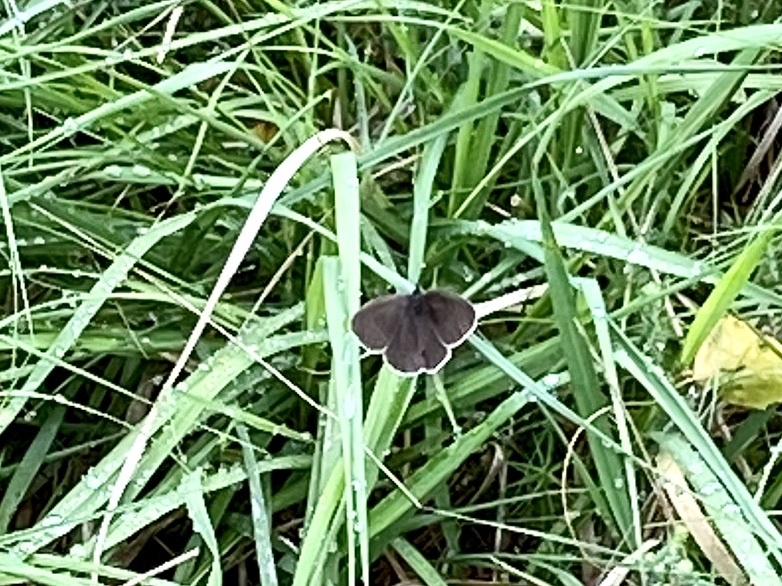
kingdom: Animalia
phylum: Arthropoda
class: Insecta
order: Lepidoptera
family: Nymphalidae
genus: Aphantopus
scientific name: Aphantopus hyperantus
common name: Ringlet
